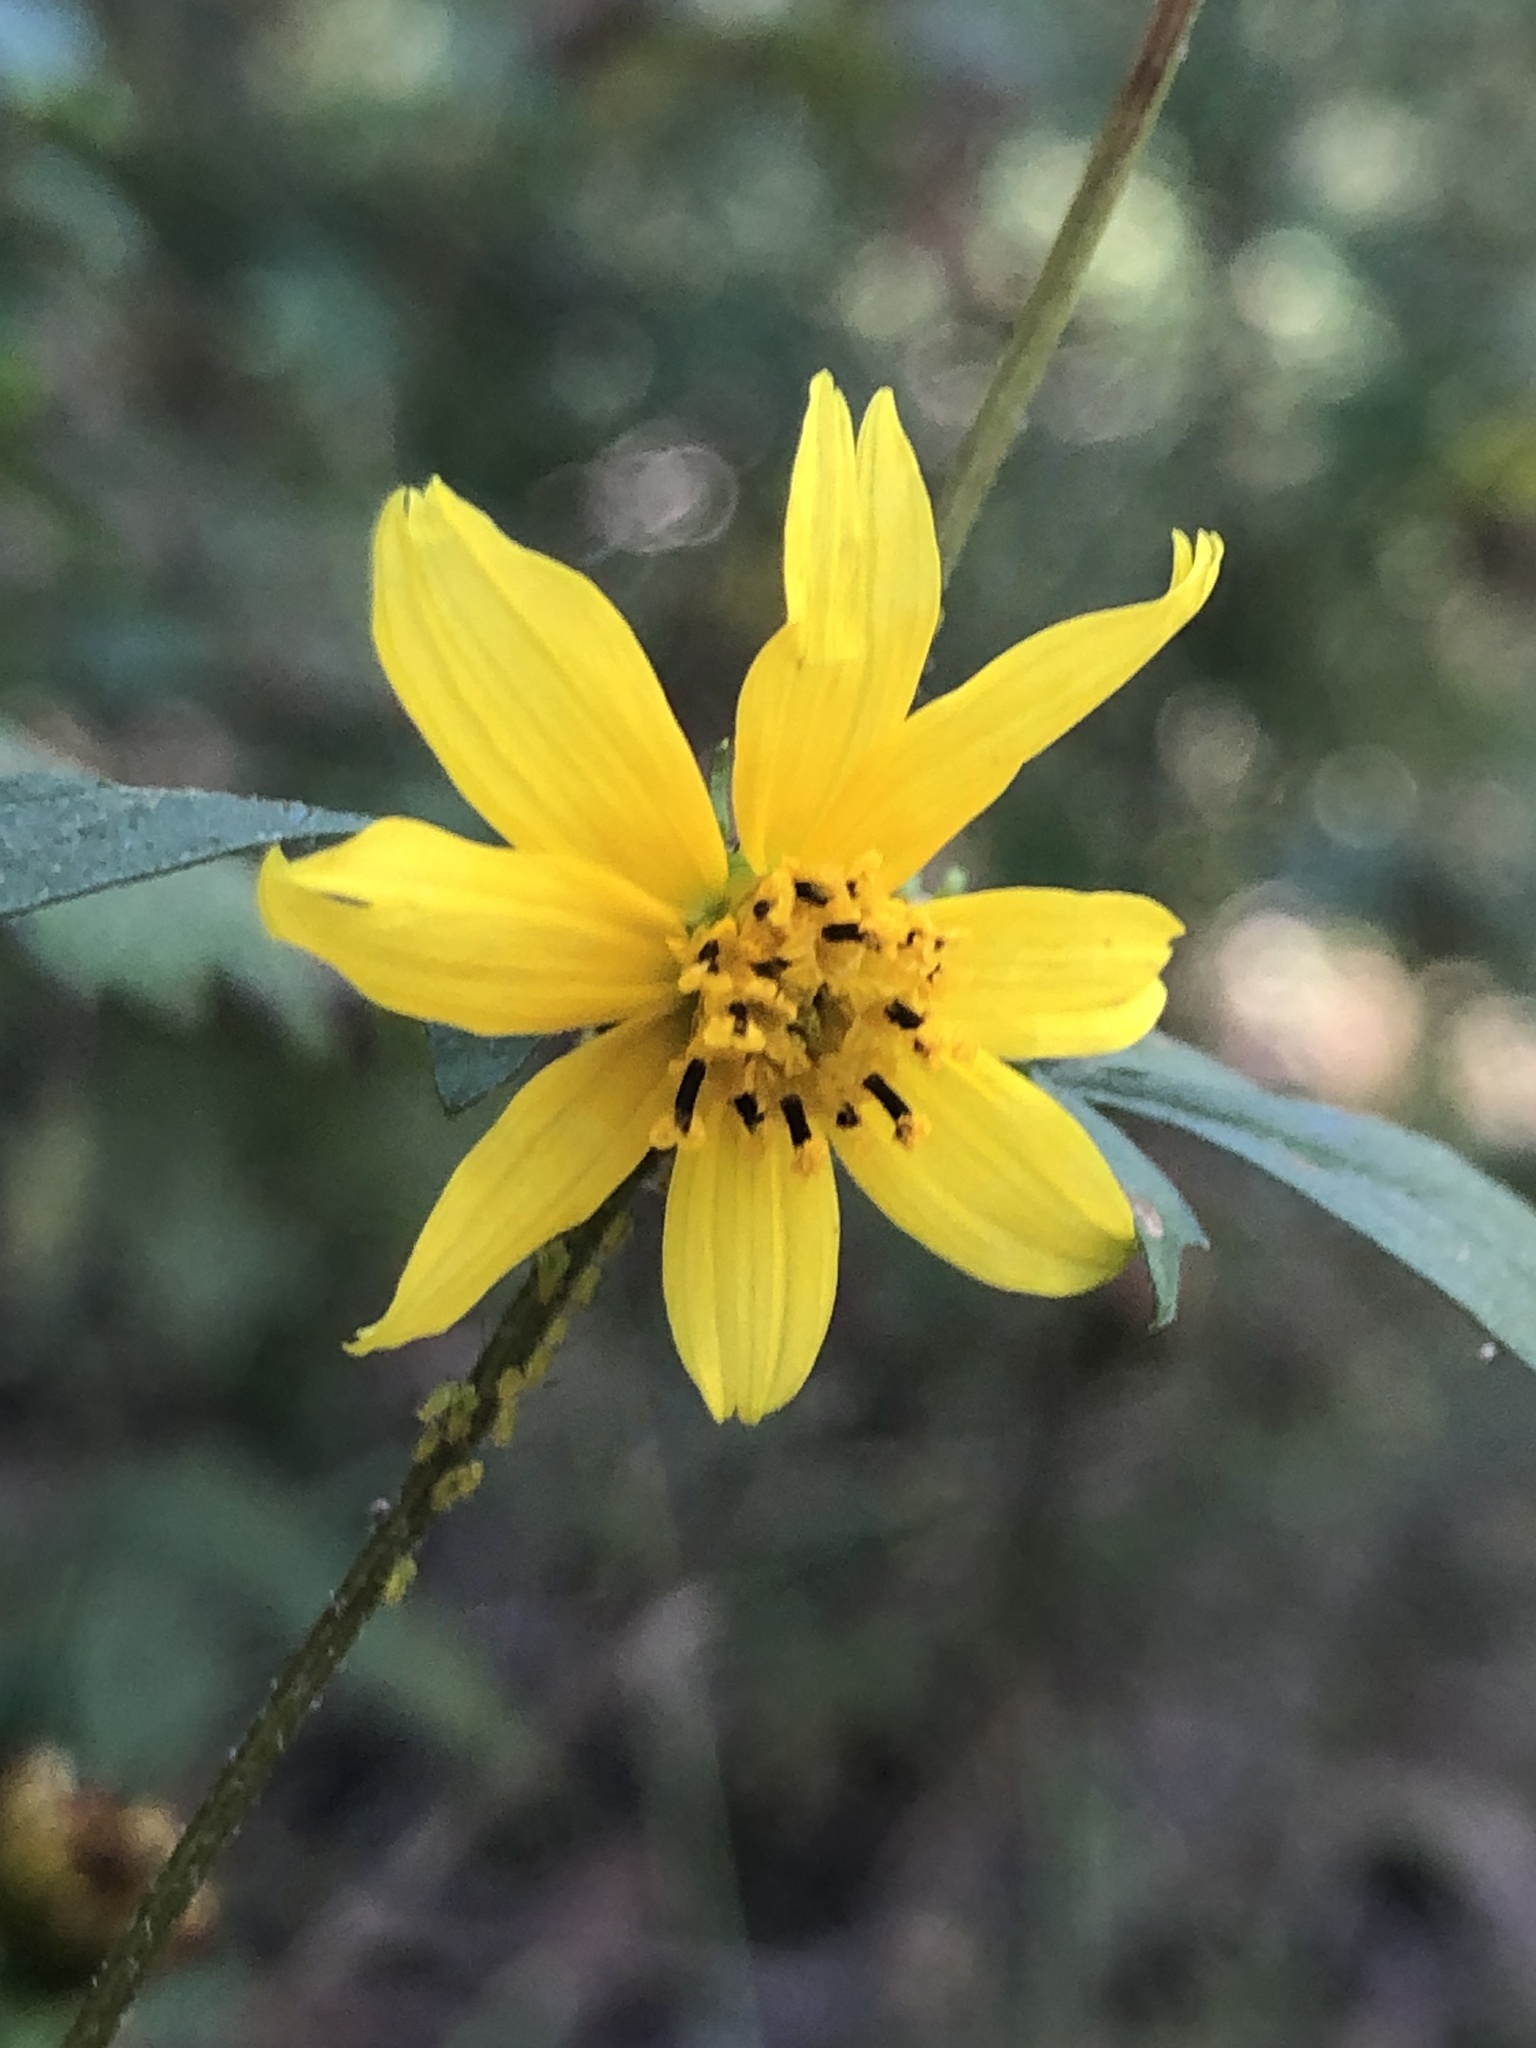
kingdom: Plantae
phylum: Tracheophyta
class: Magnoliopsida
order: Asterales
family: Asteraceae
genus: Bidens
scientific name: Bidens aristosa
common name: Western tickseed
